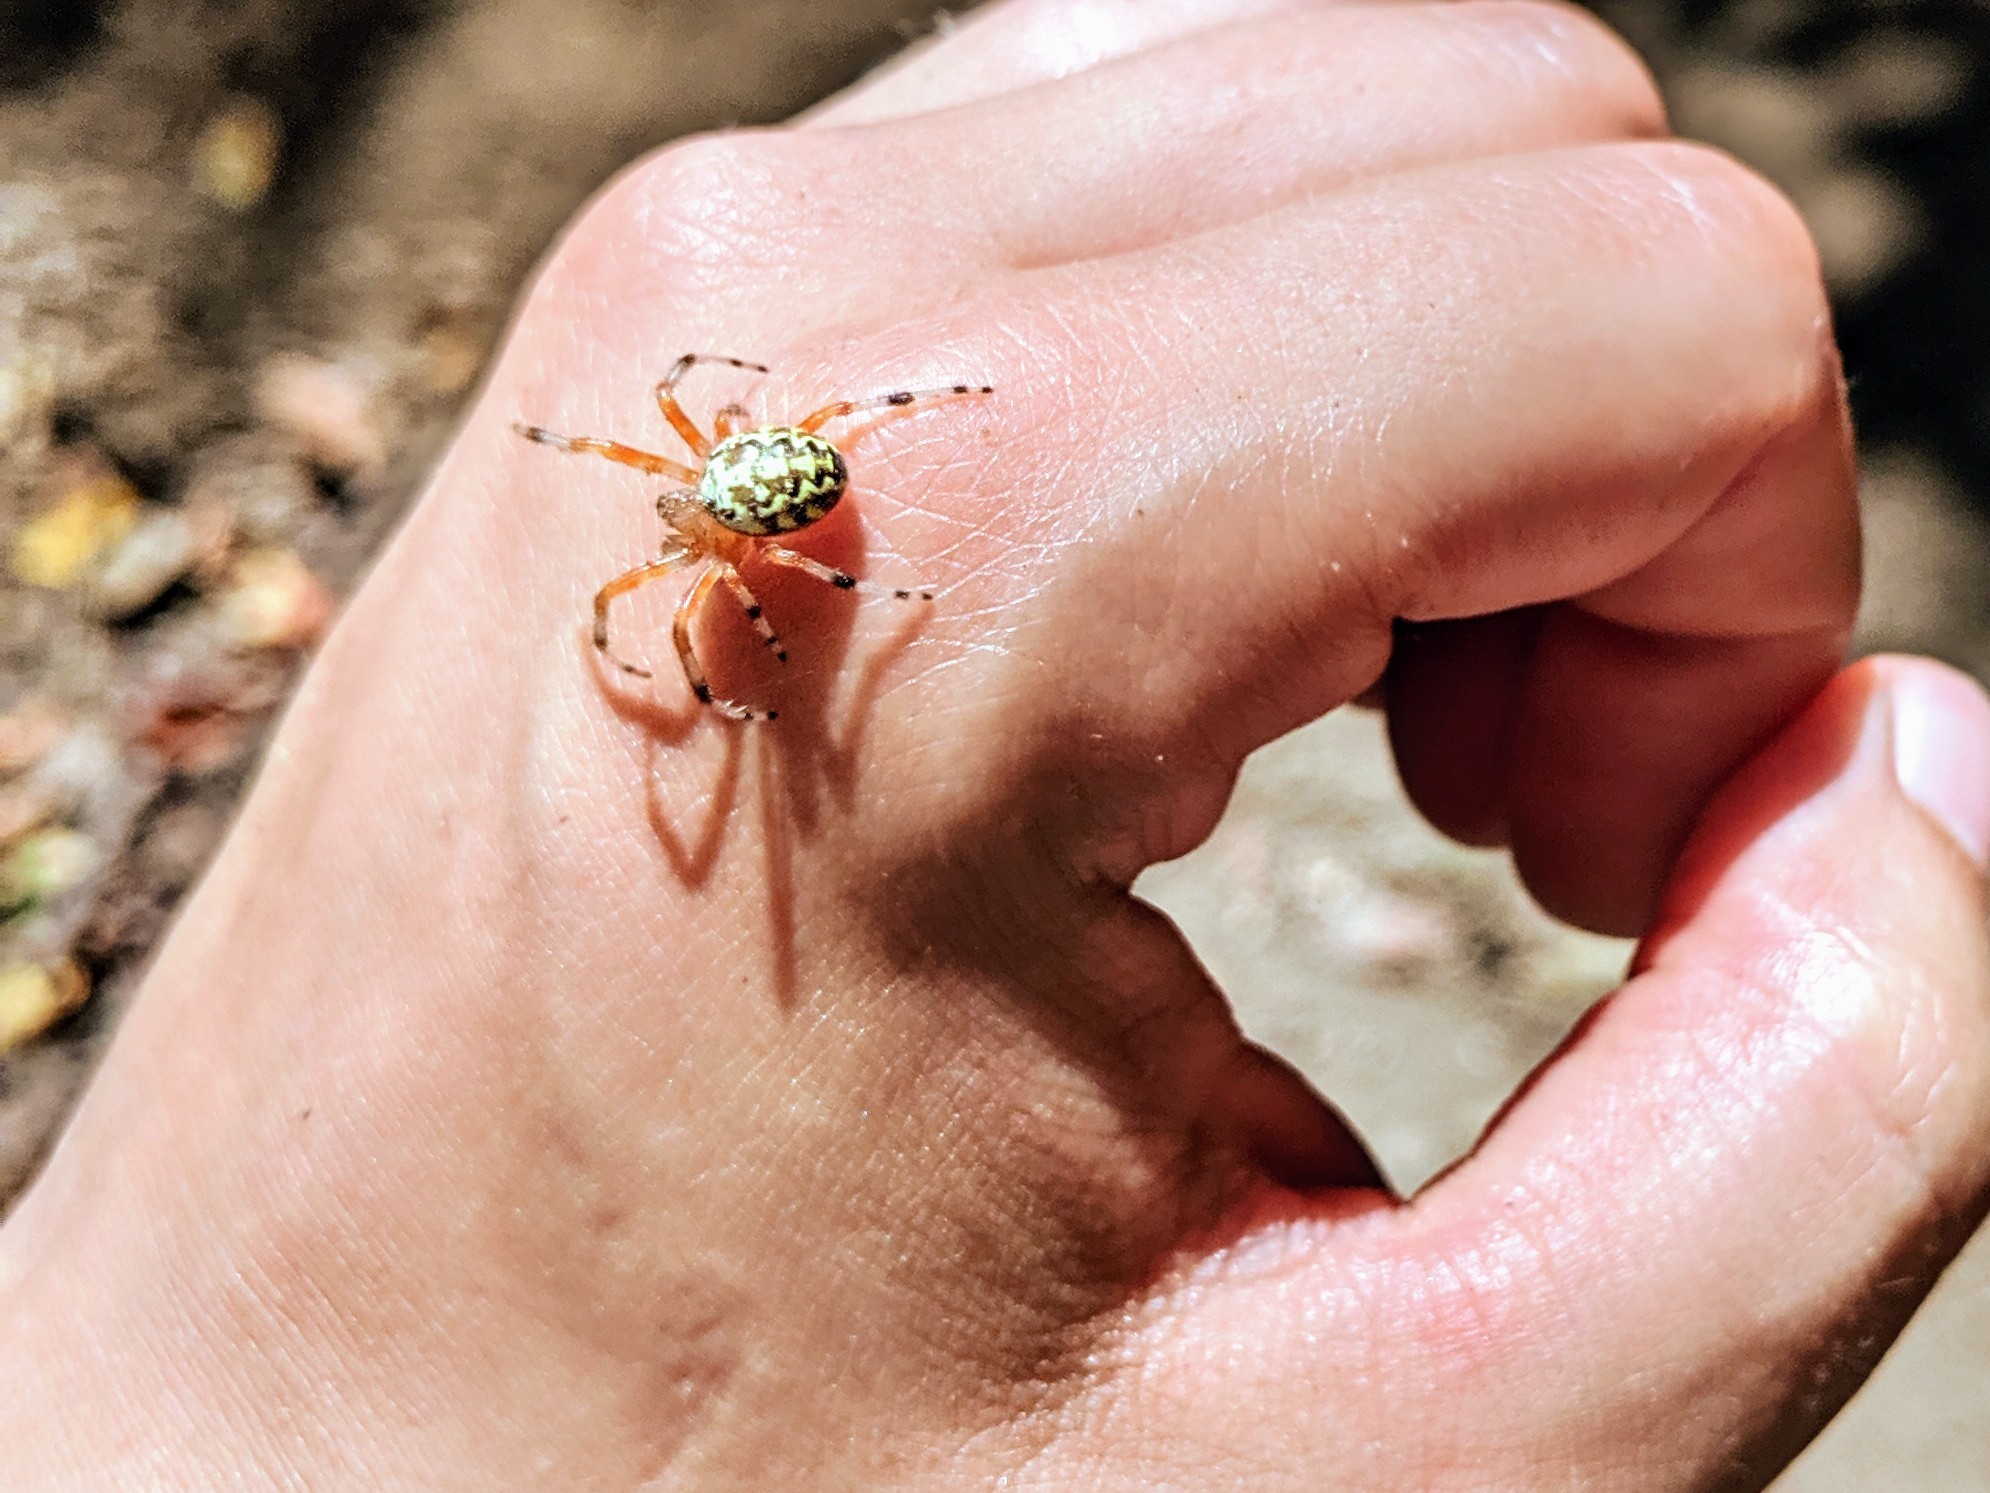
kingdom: Animalia
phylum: Arthropoda
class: Arachnida
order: Araneae
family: Araneidae
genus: Araneus
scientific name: Araneus marmoreus
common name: Marbled orbweaver
